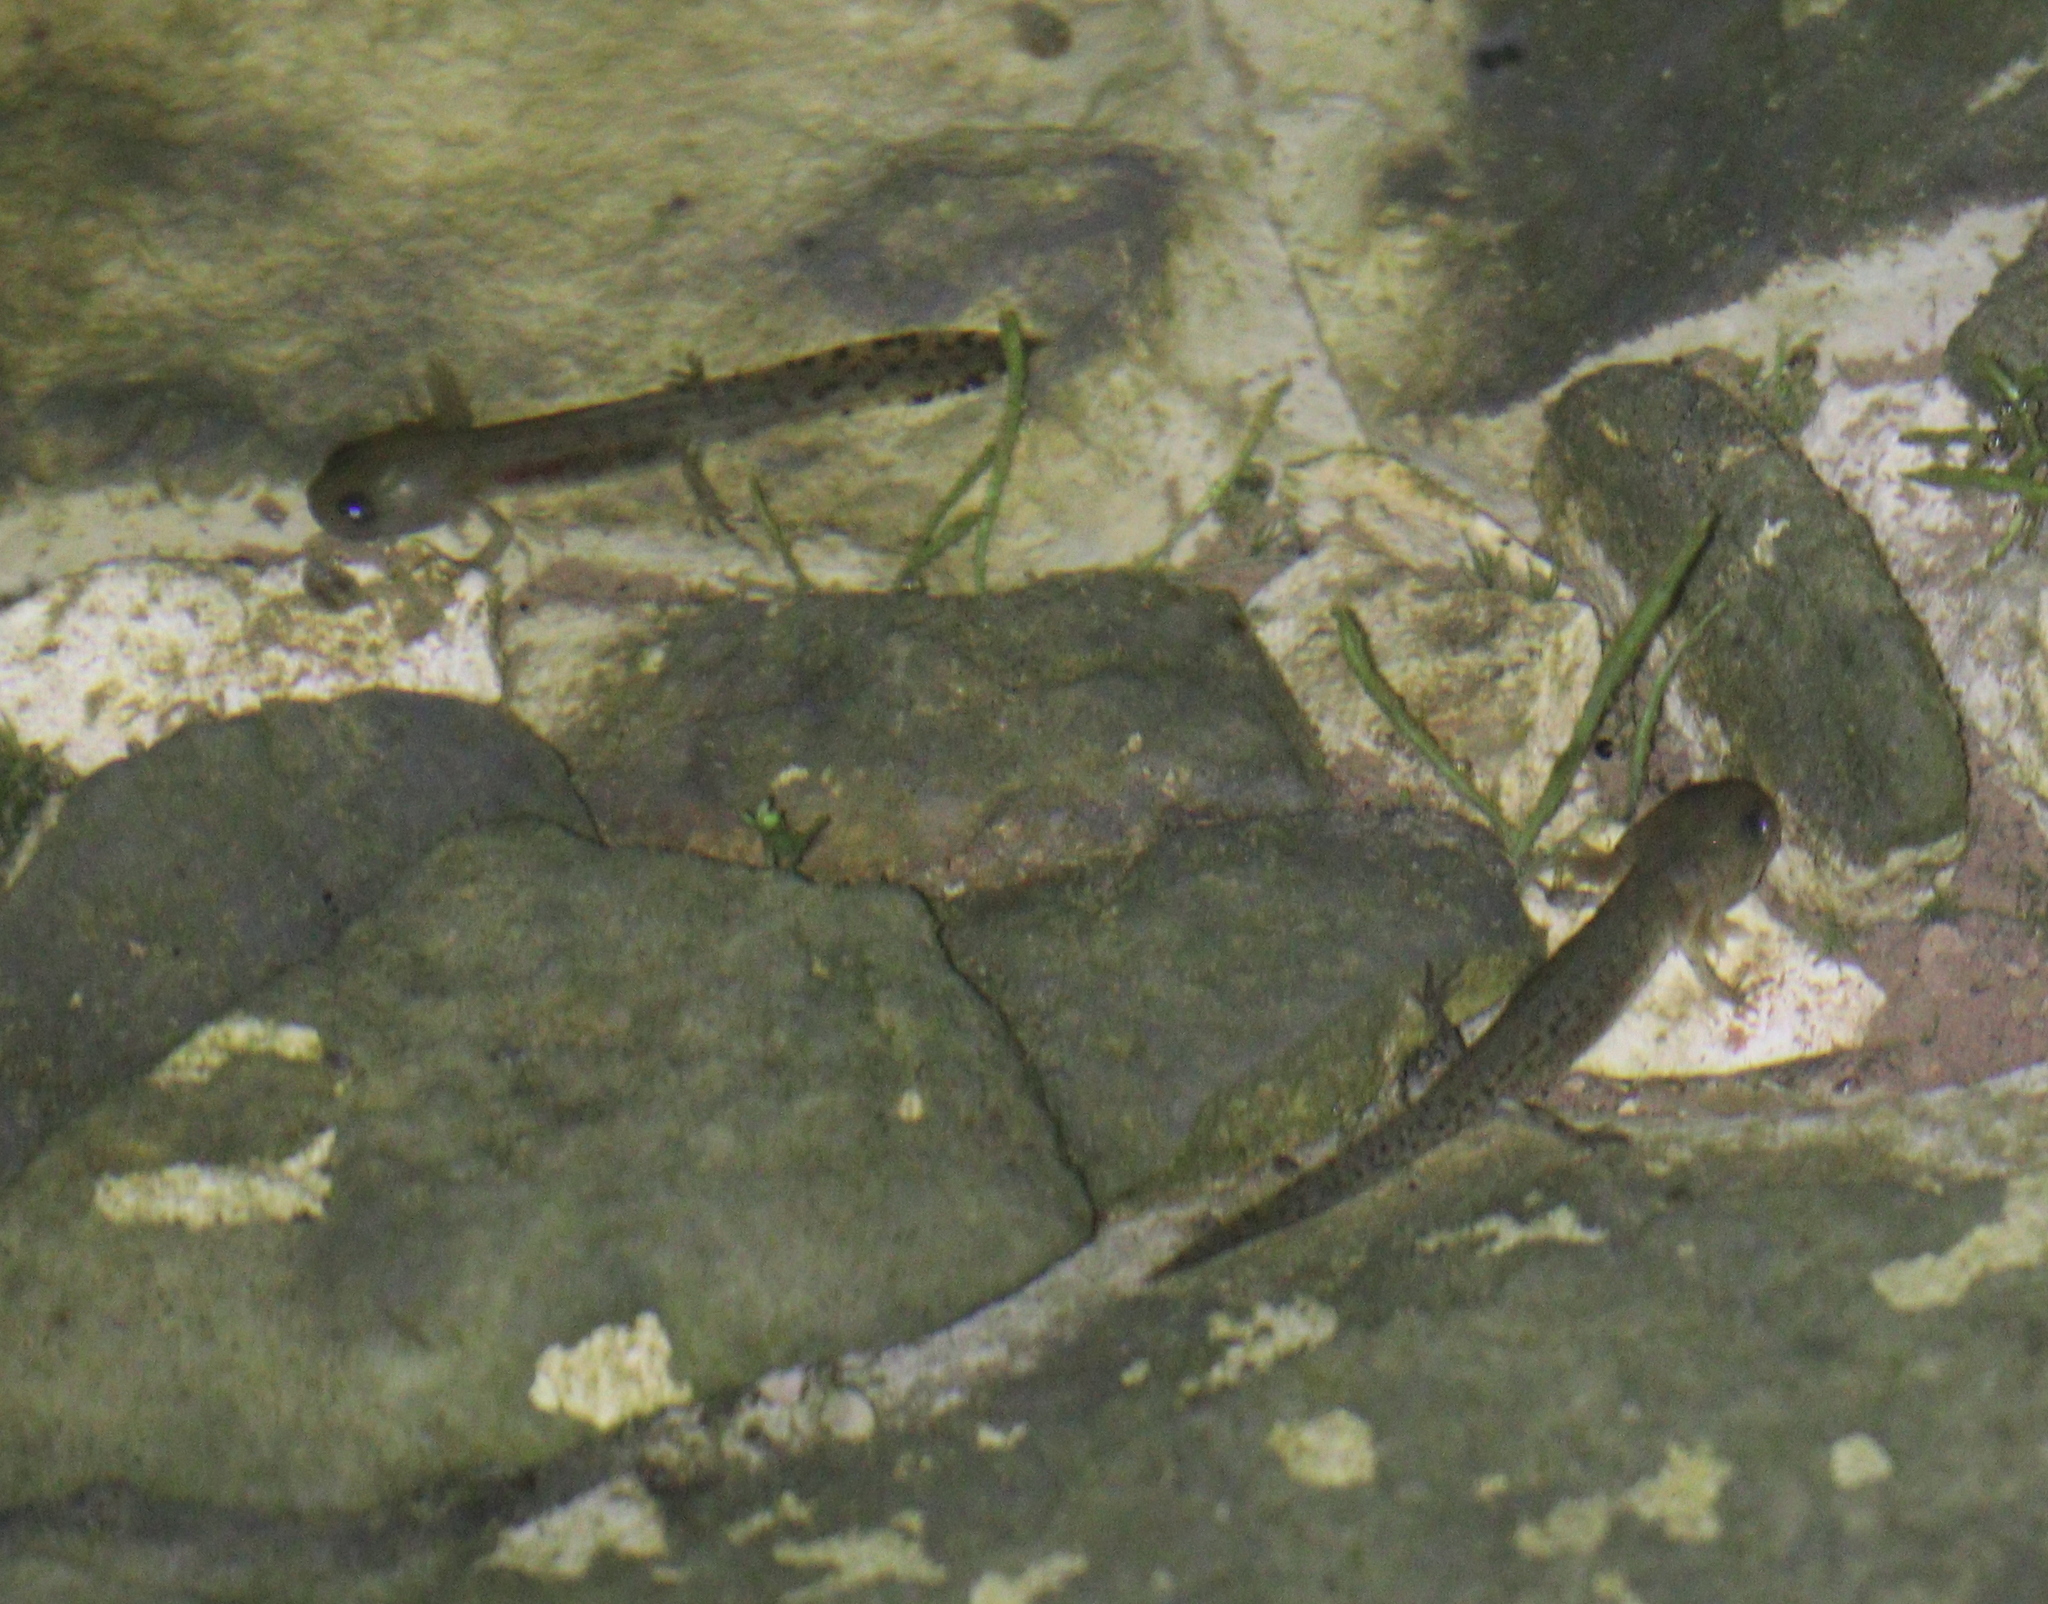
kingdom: Animalia
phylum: Chordata
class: Amphibia
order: Caudata
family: Salamandridae
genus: Salamandra
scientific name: Salamandra salamandra
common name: Fire salamander
